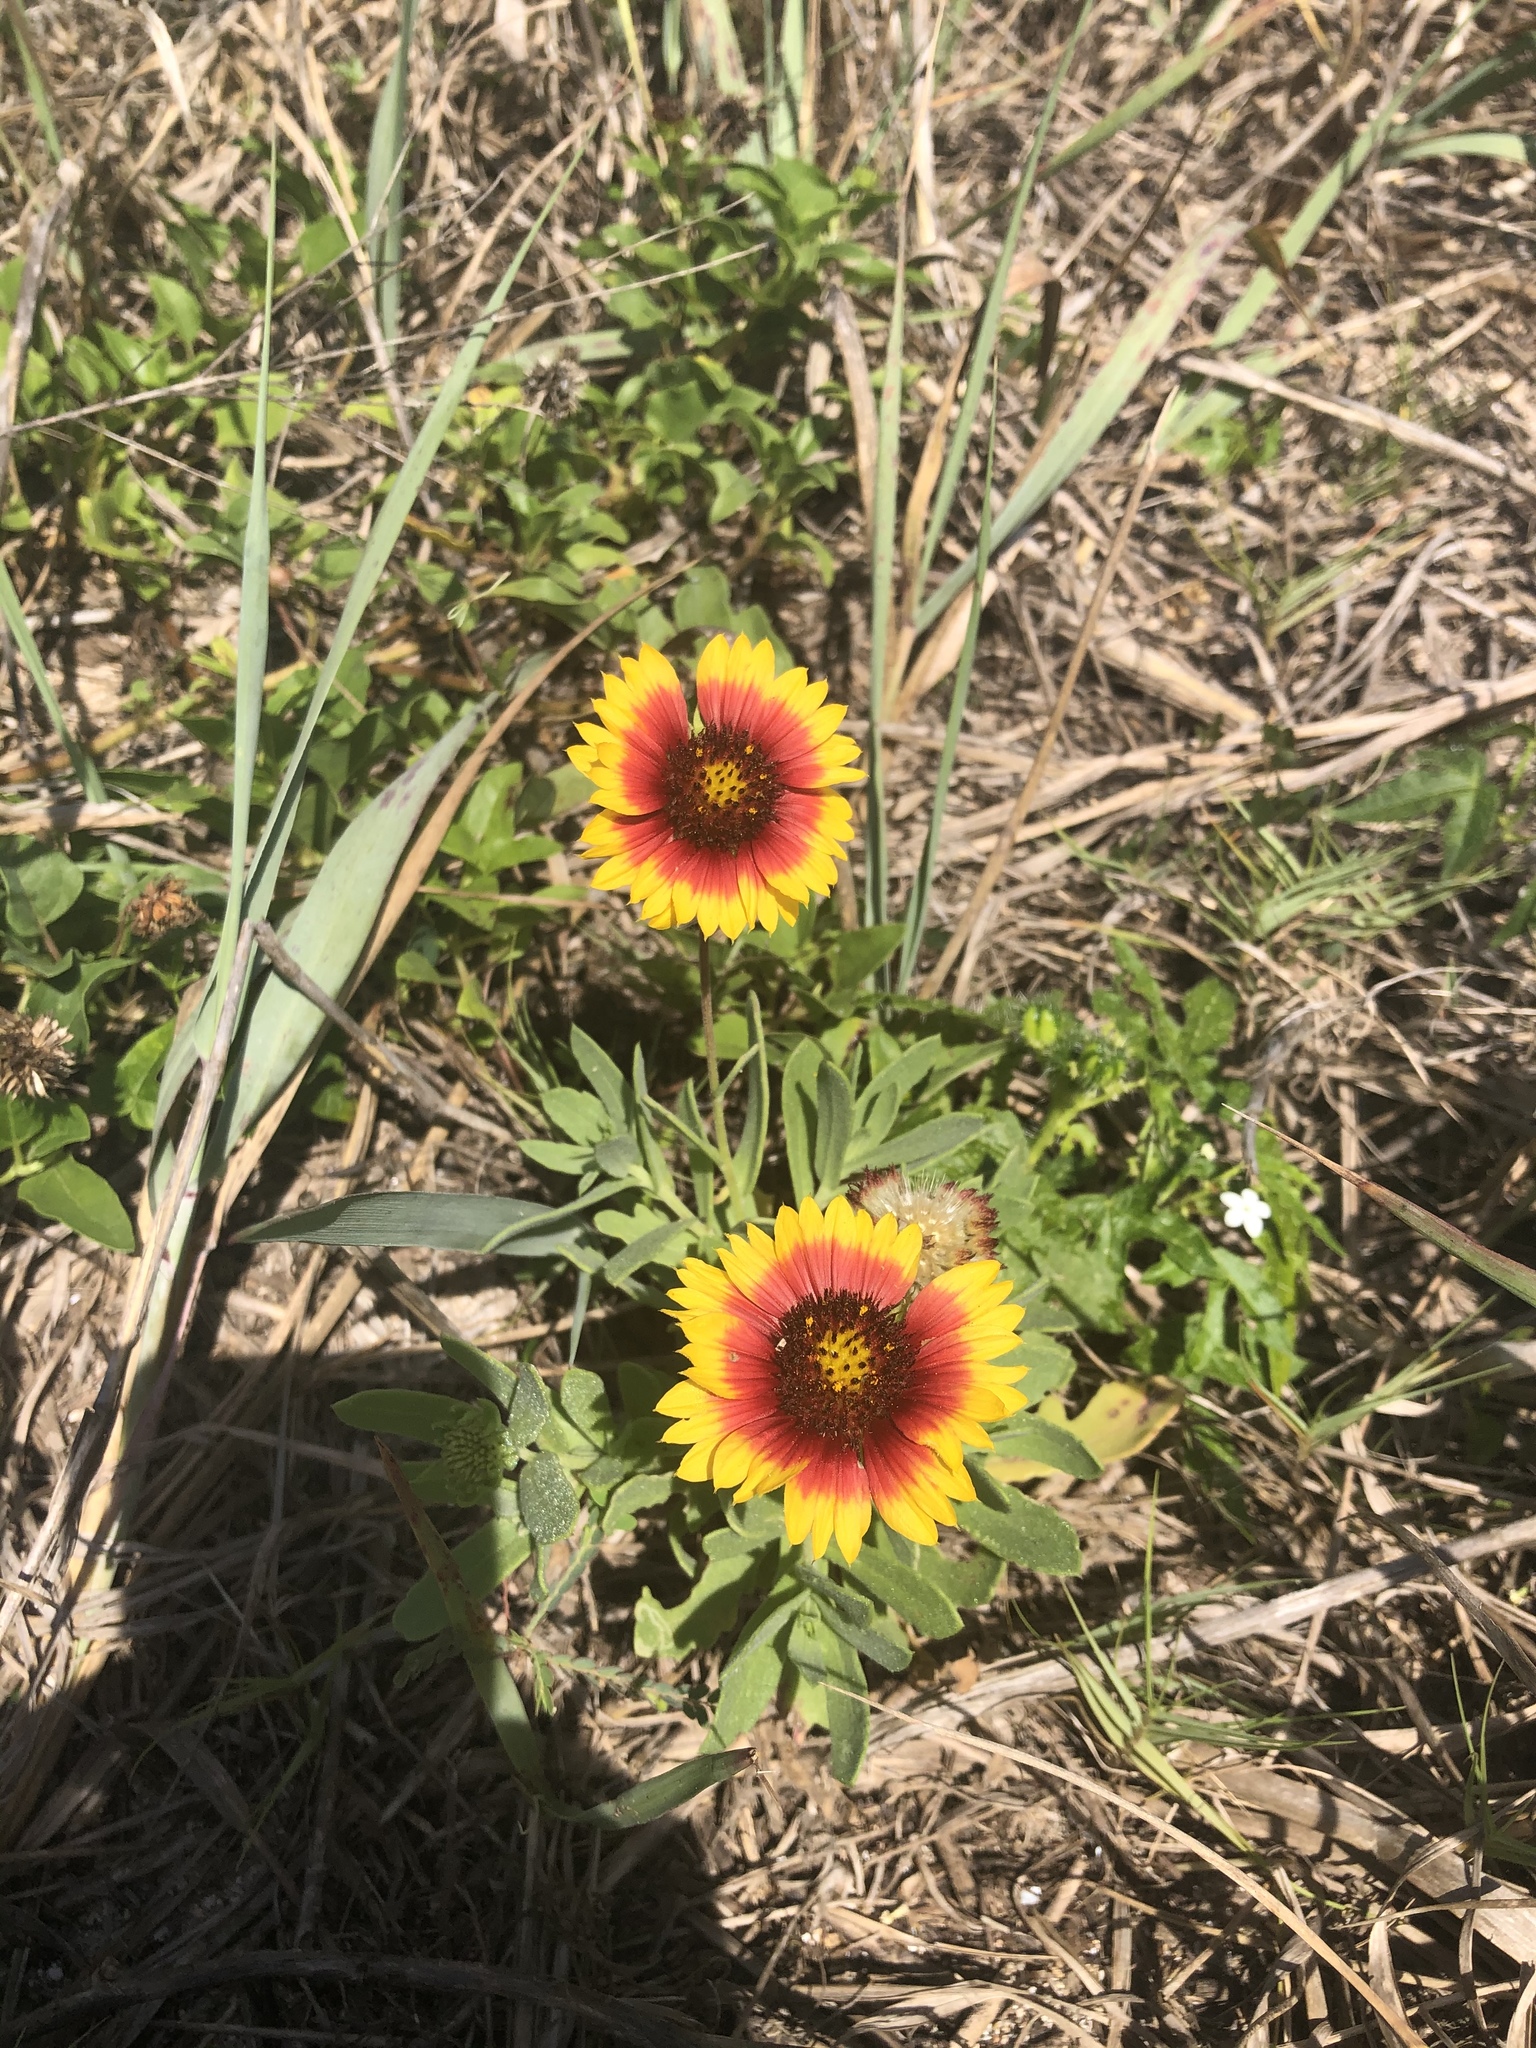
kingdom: Plantae
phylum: Tracheophyta
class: Magnoliopsida
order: Asterales
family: Asteraceae
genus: Gaillardia
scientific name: Gaillardia pulchella
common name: Firewheel
